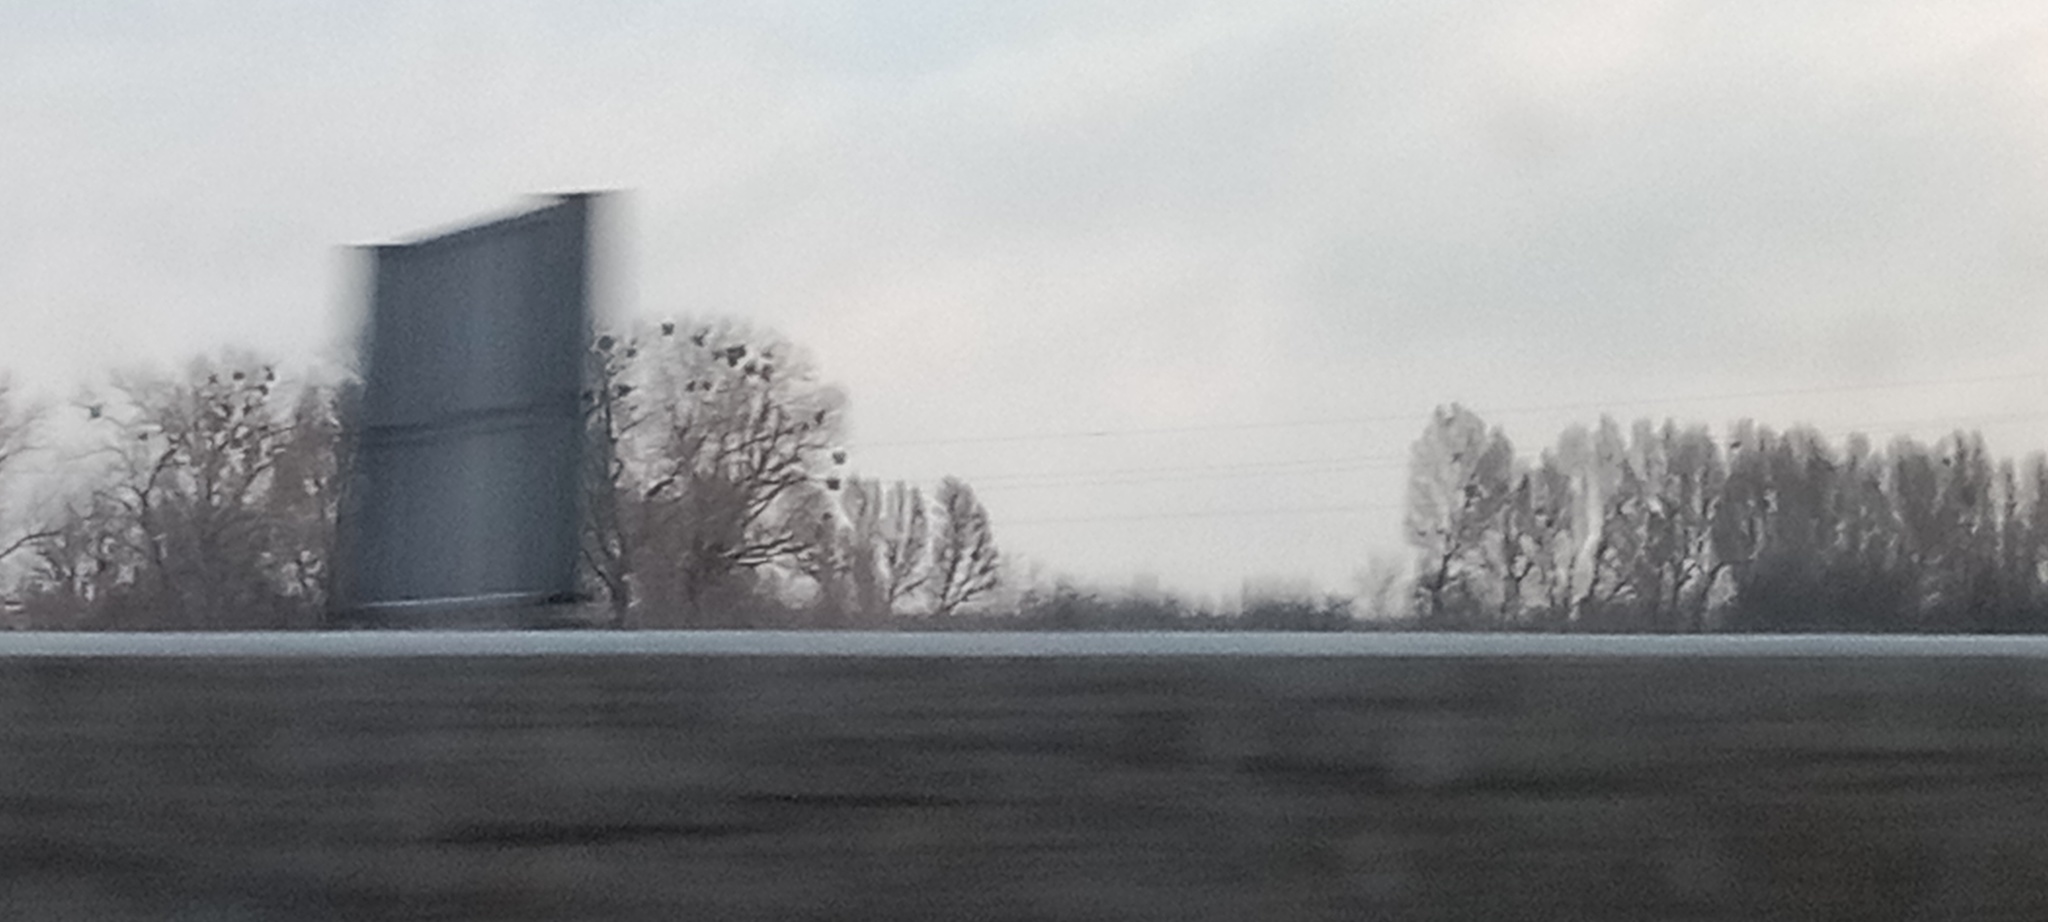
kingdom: Plantae
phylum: Tracheophyta
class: Magnoliopsida
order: Santalales
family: Viscaceae
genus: Viscum
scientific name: Viscum album
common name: Mistletoe
